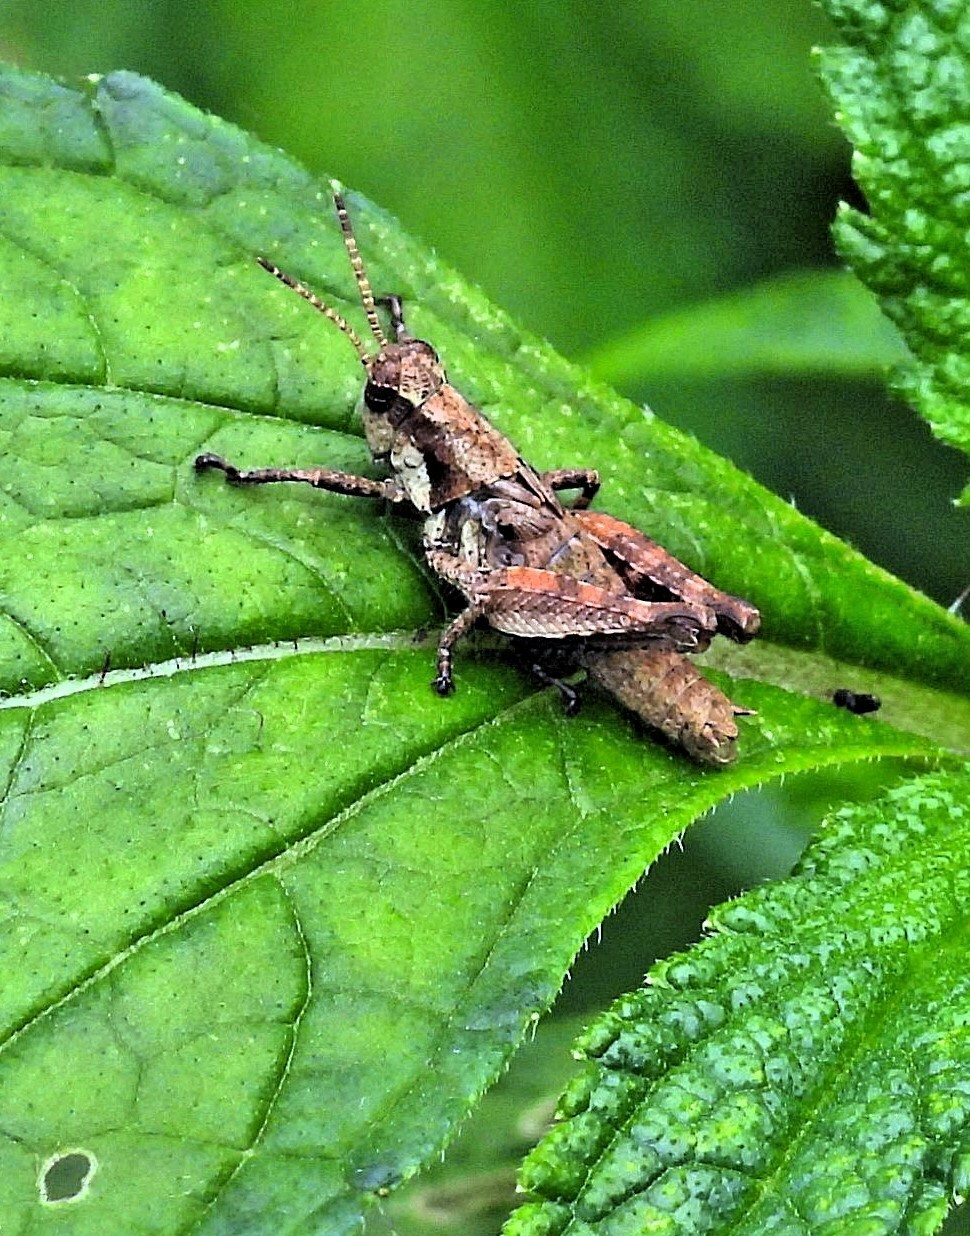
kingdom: Animalia
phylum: Arthropoda
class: Insecta
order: Orthoptera
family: Acrididae
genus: Ronderosia
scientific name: Ronderosia bergii
